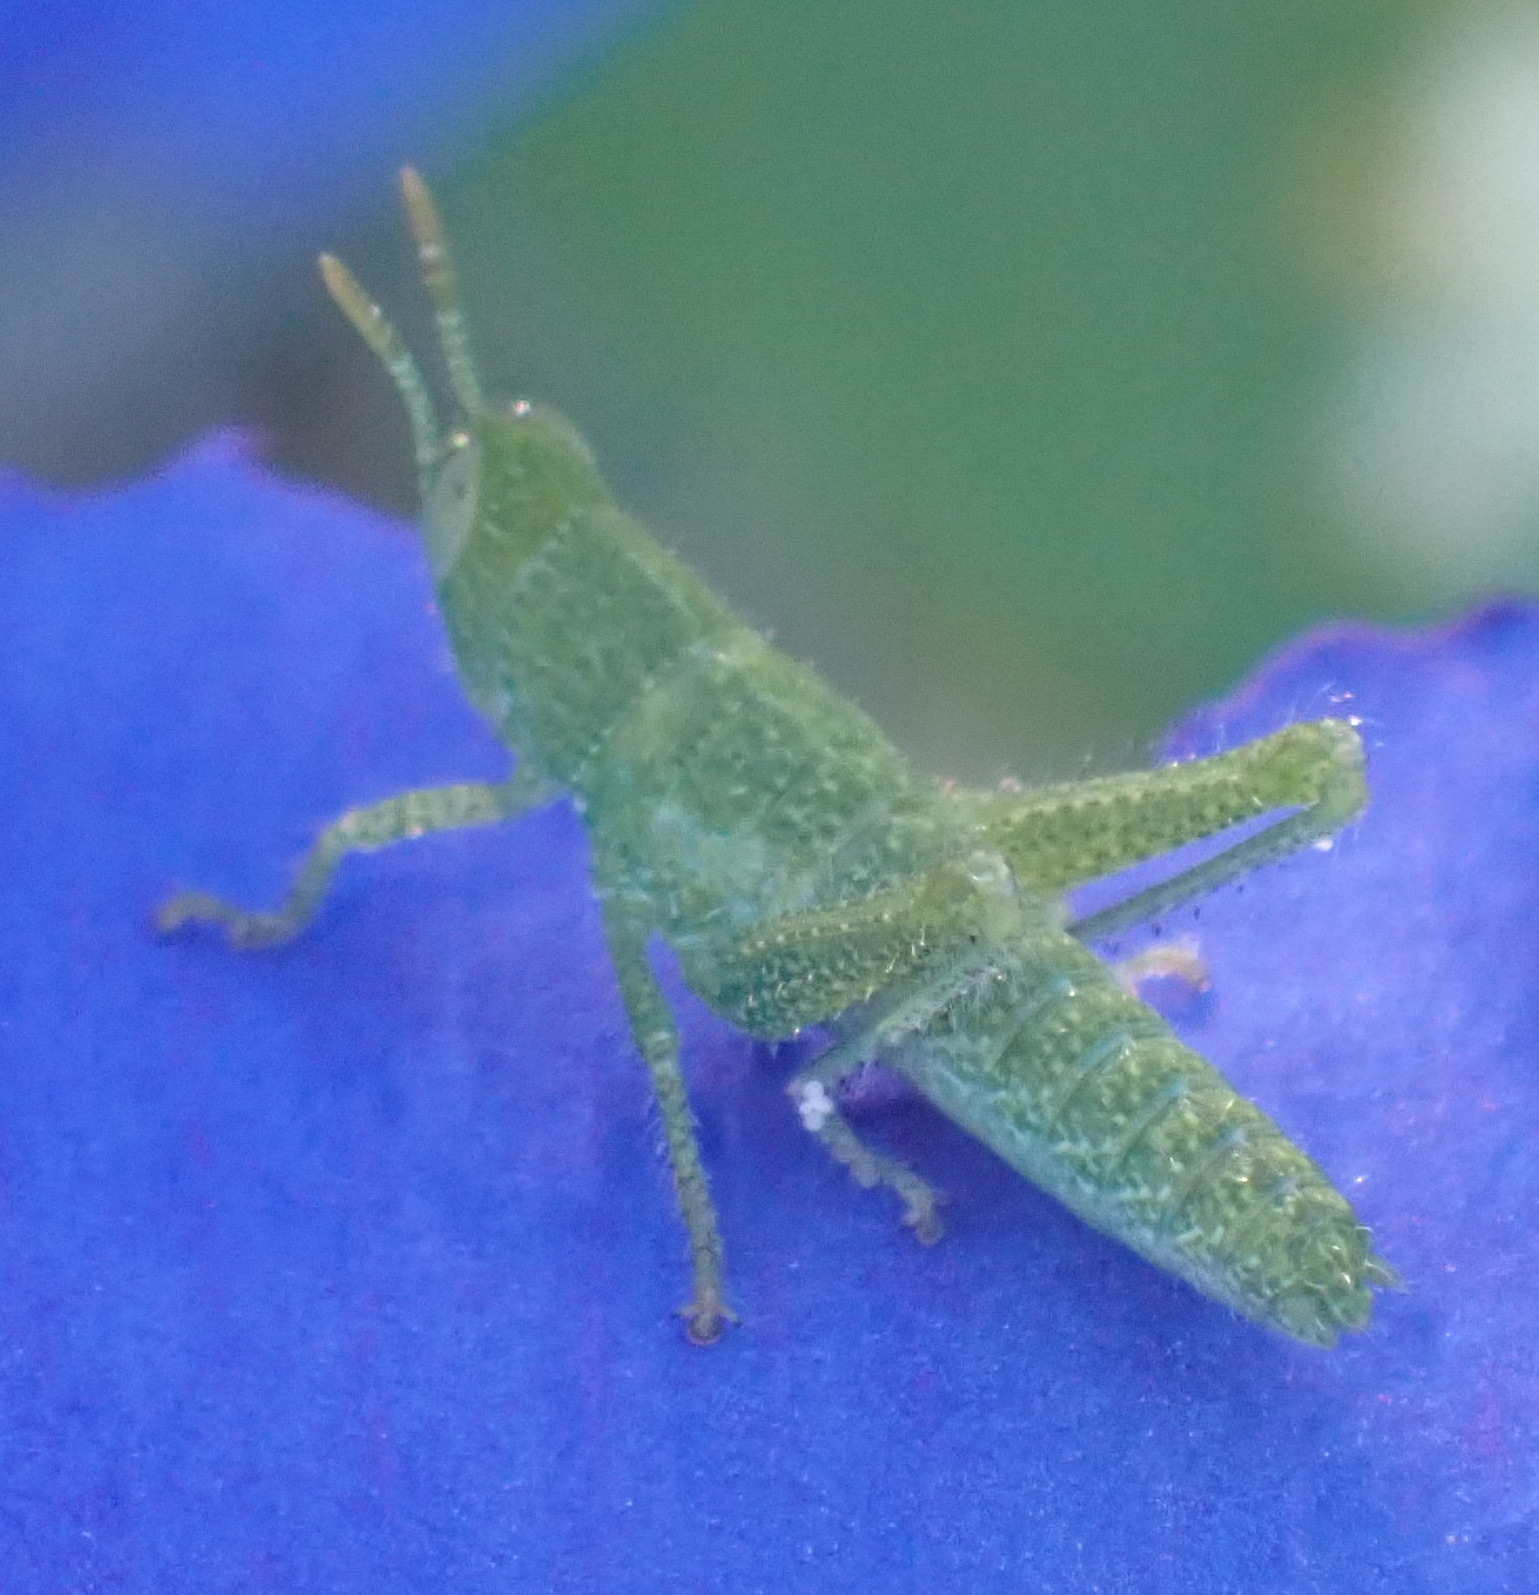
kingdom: Animalia
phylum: Arthropoda
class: Insecta
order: Orthoptera
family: Acrididae
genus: Acanthacris
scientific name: Acanthacris ruficornis
